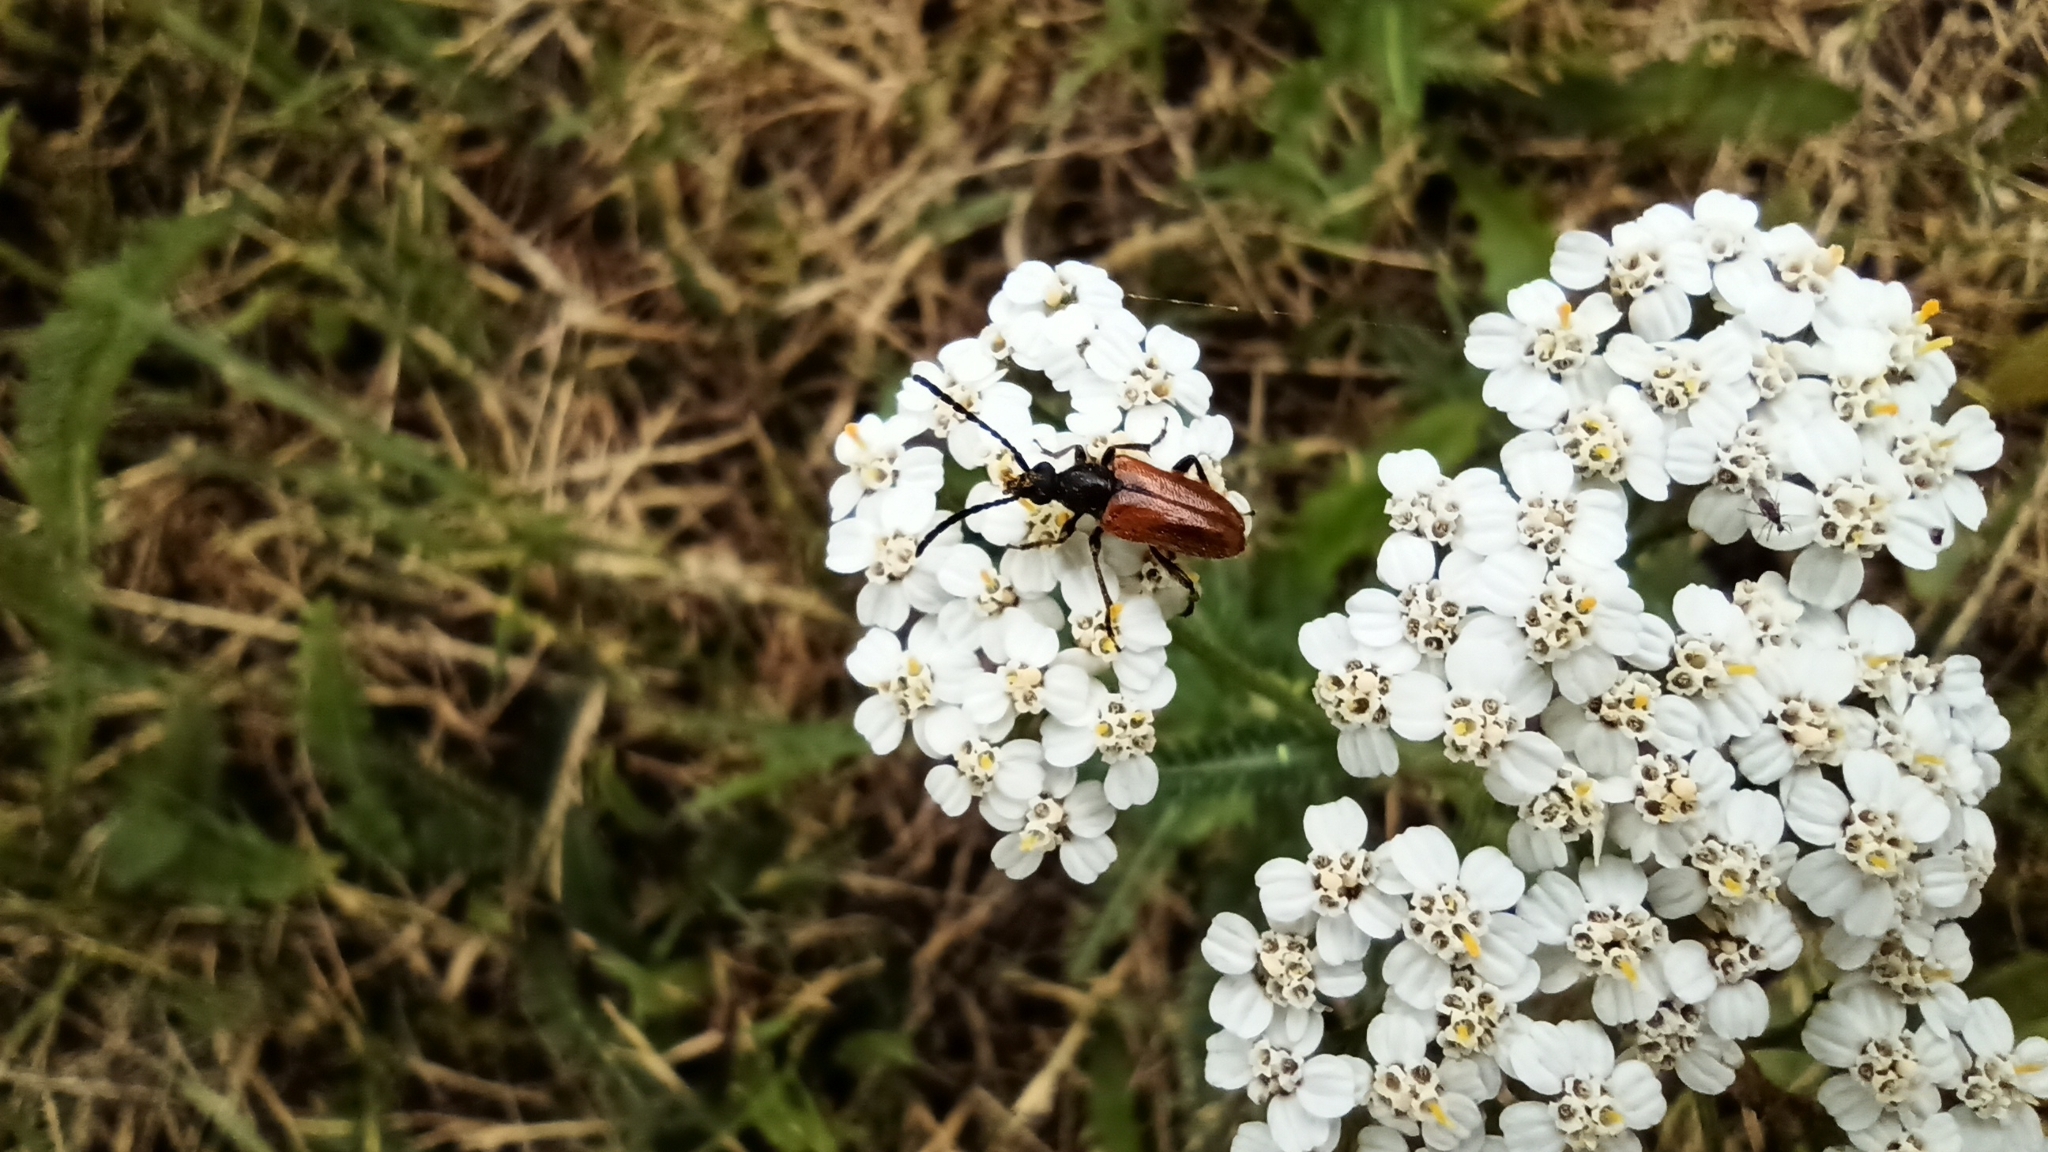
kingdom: Animalia
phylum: Arthropoda
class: Insecta
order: Coleoptera
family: Cerambycidae
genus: Pseudovadonia
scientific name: Pseudovadonia livida
